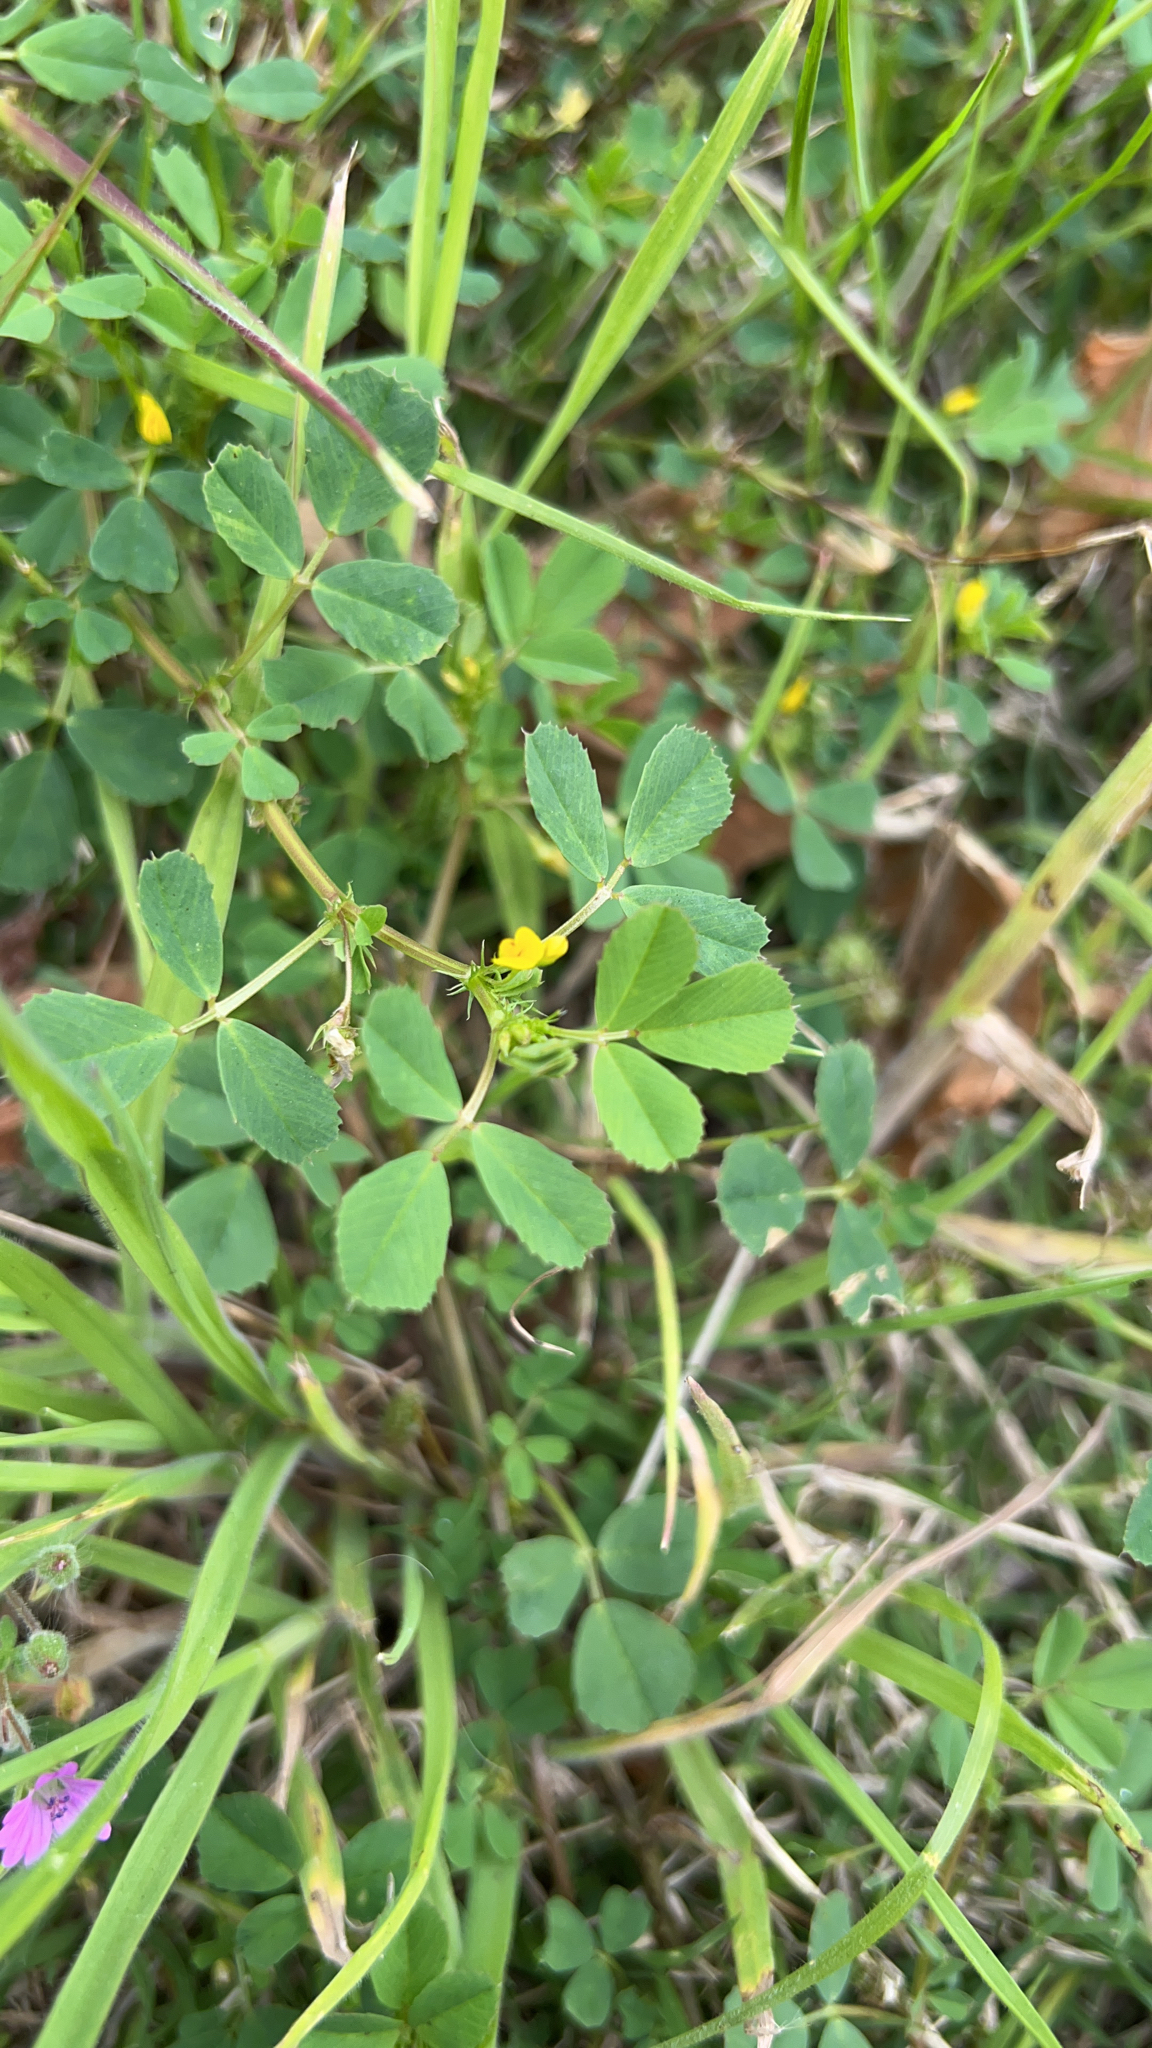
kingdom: Plantae
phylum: Tracheophyta
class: Magnoliopsida
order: Fabales
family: Fabaceae
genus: Medicago
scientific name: Medicago polymorpha
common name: Burclover
